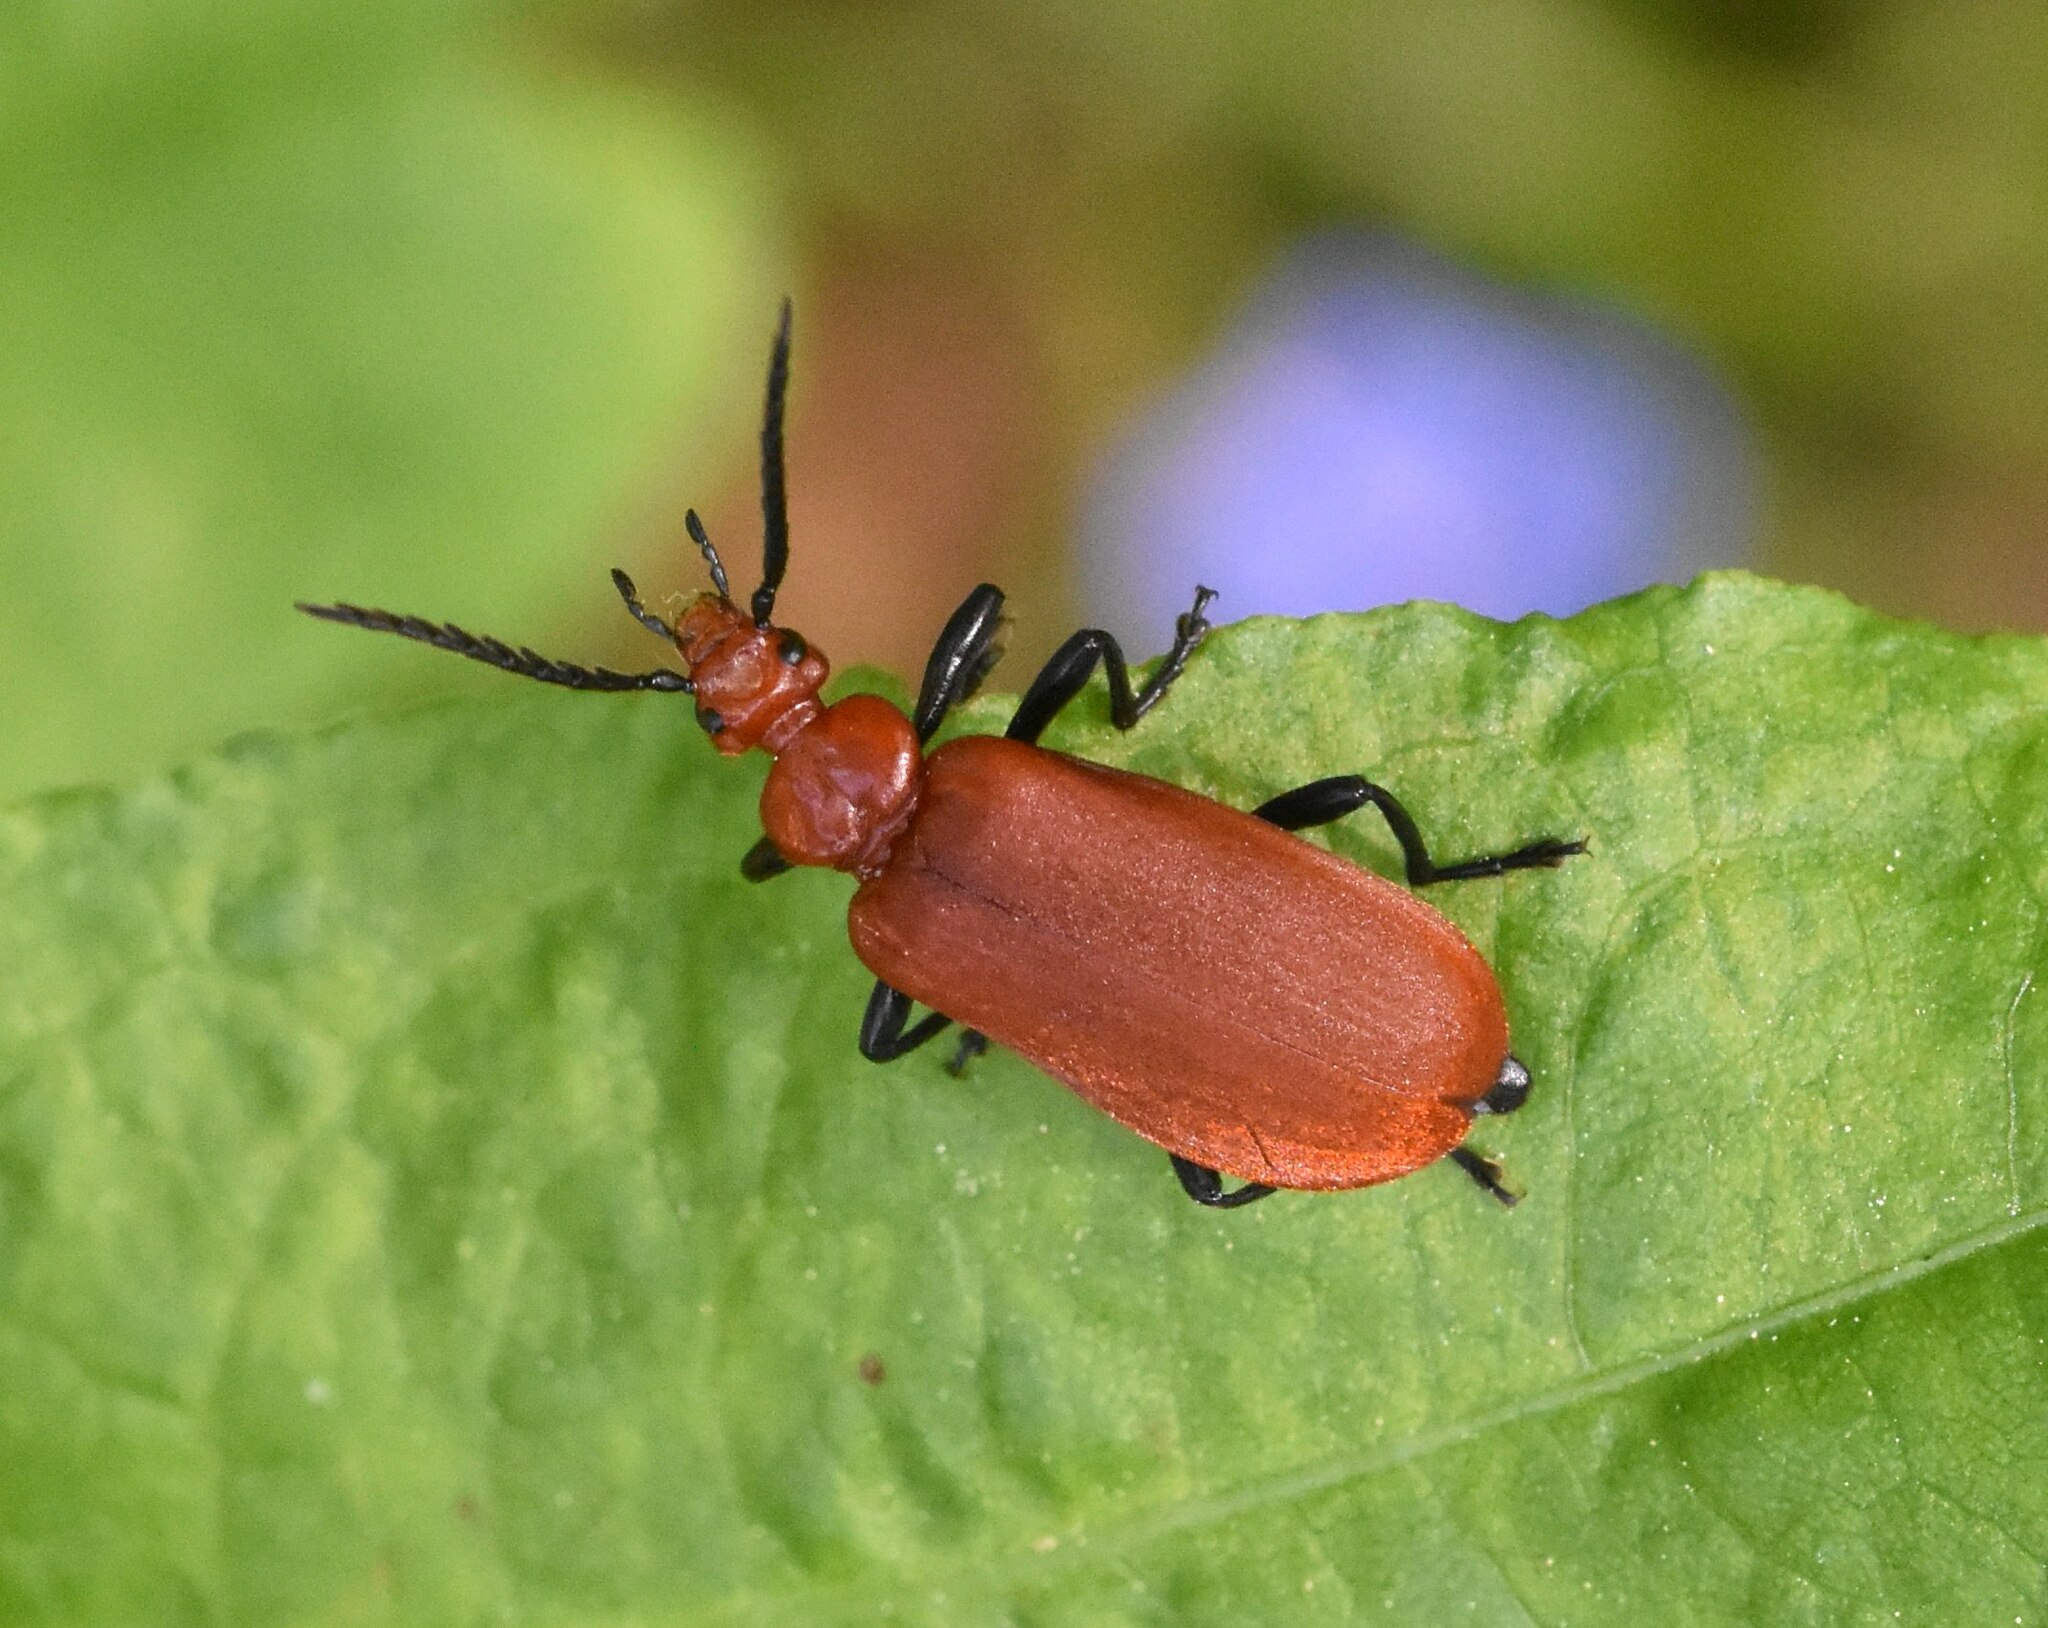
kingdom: Animalia
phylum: Arthropoda
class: Insecta
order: Coleoptera
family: Pyrochroidae
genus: Pyrochroa
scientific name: Pyrochroa serraticornis
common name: Red-headed cardinal beetle
